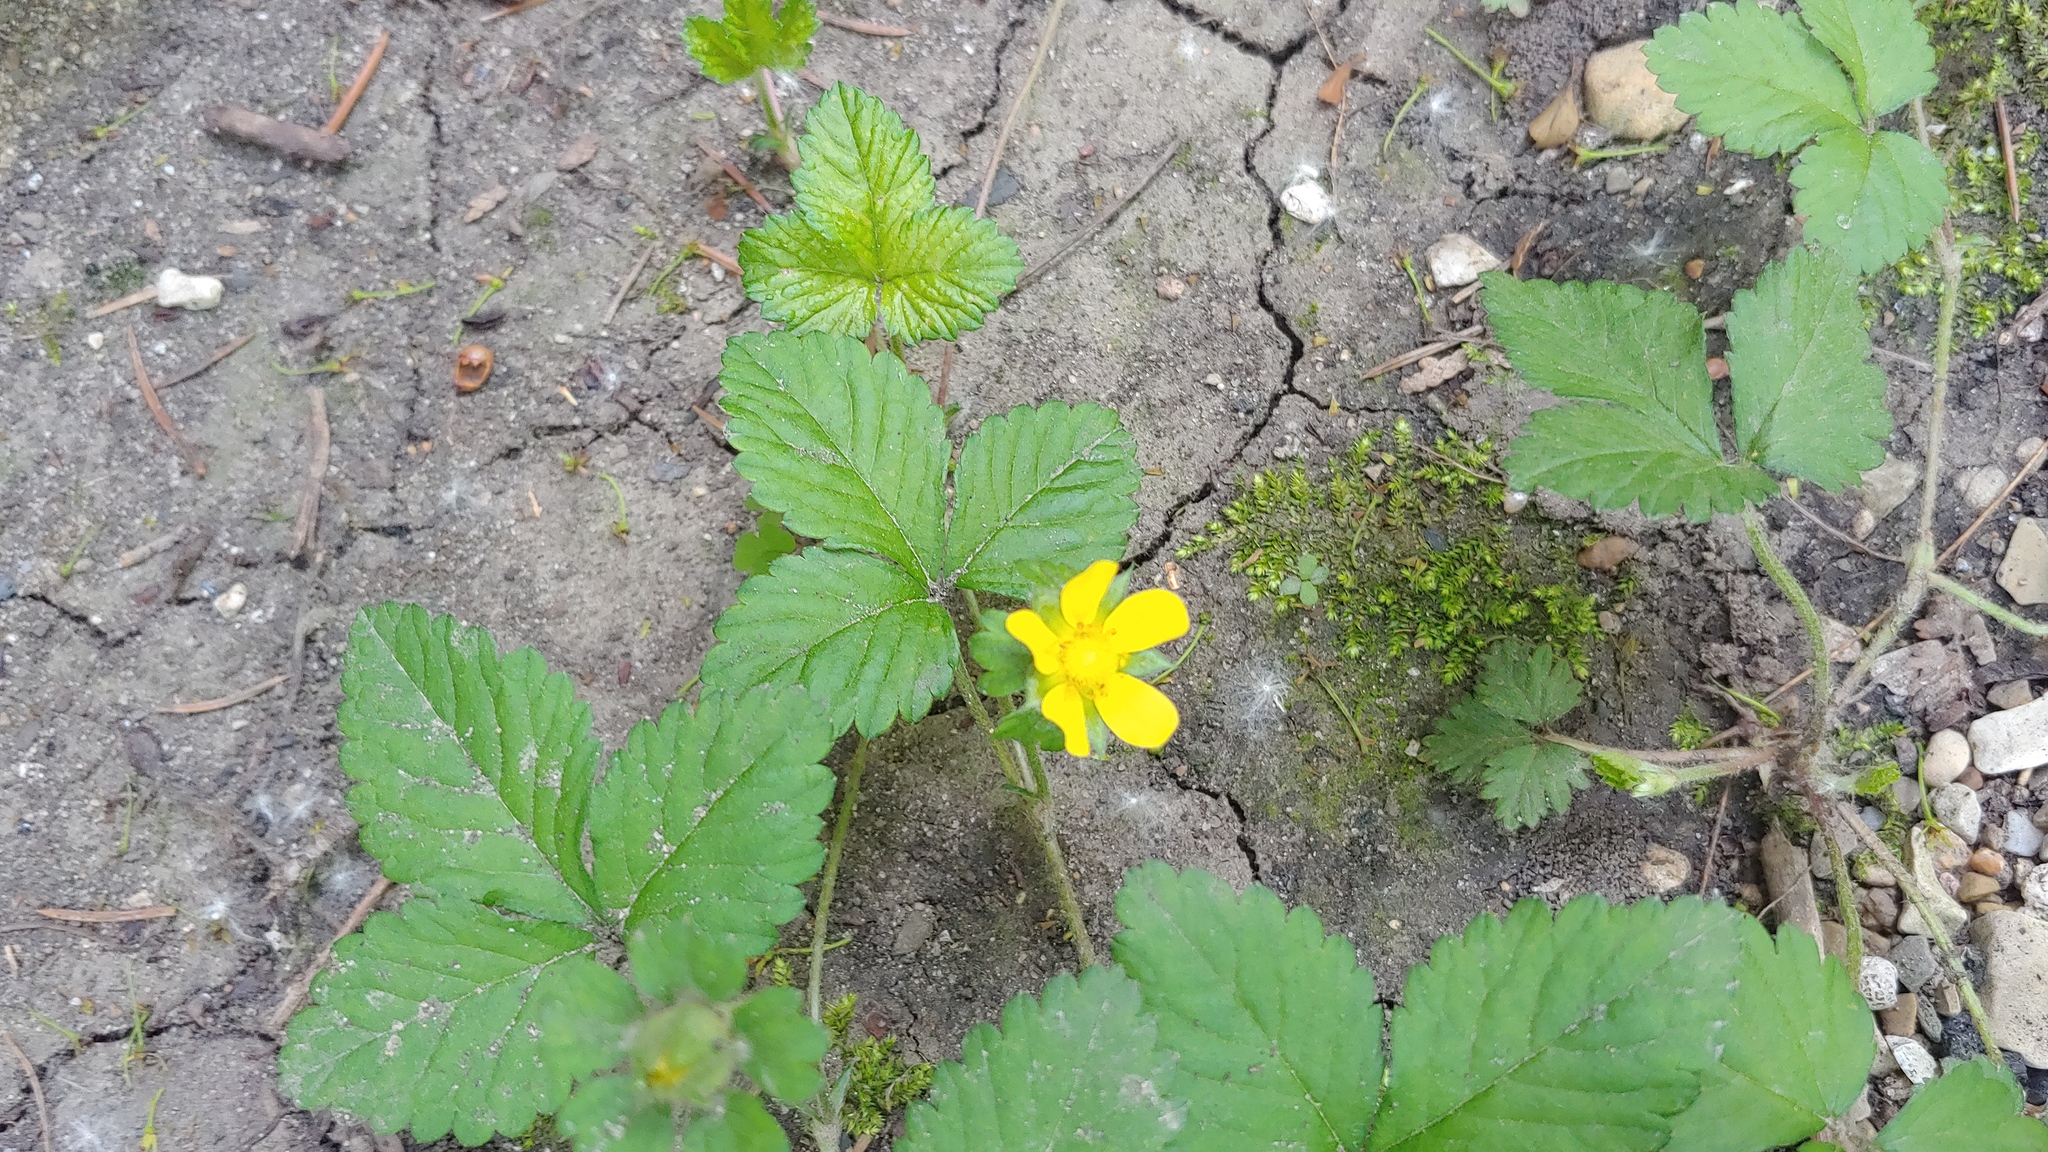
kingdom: Plantae
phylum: Tracheophyta
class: Magnoliopsida
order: Rosales
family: Rosaceae
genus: Potentilla
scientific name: Potentilla indica
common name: Yellow-flowered strawberry
